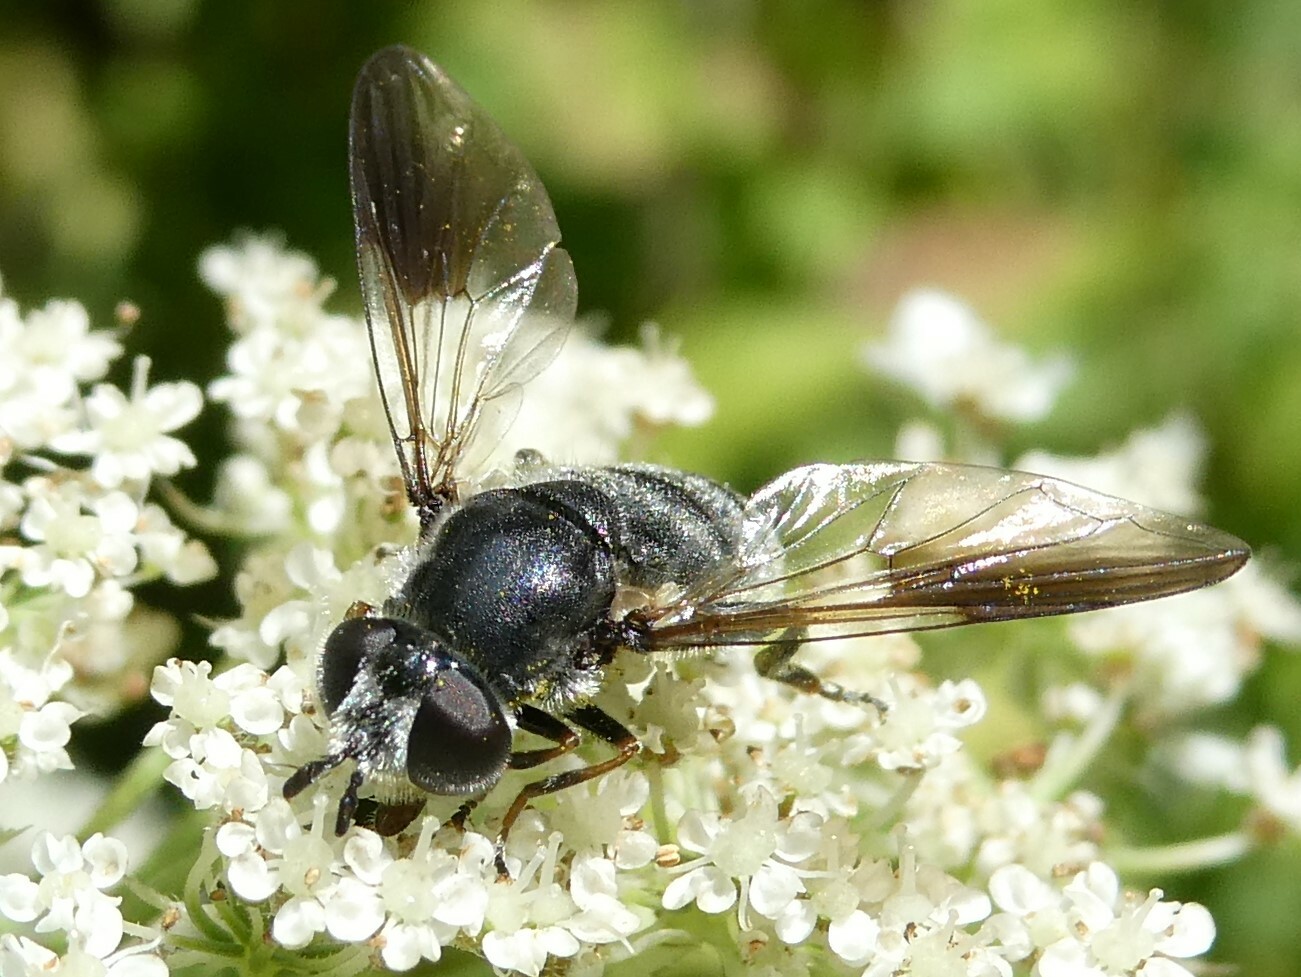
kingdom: Animalia
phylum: Arthropoda
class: Insecta
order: Diptera
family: Syrphidae
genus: Pipiza
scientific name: Pipiza
